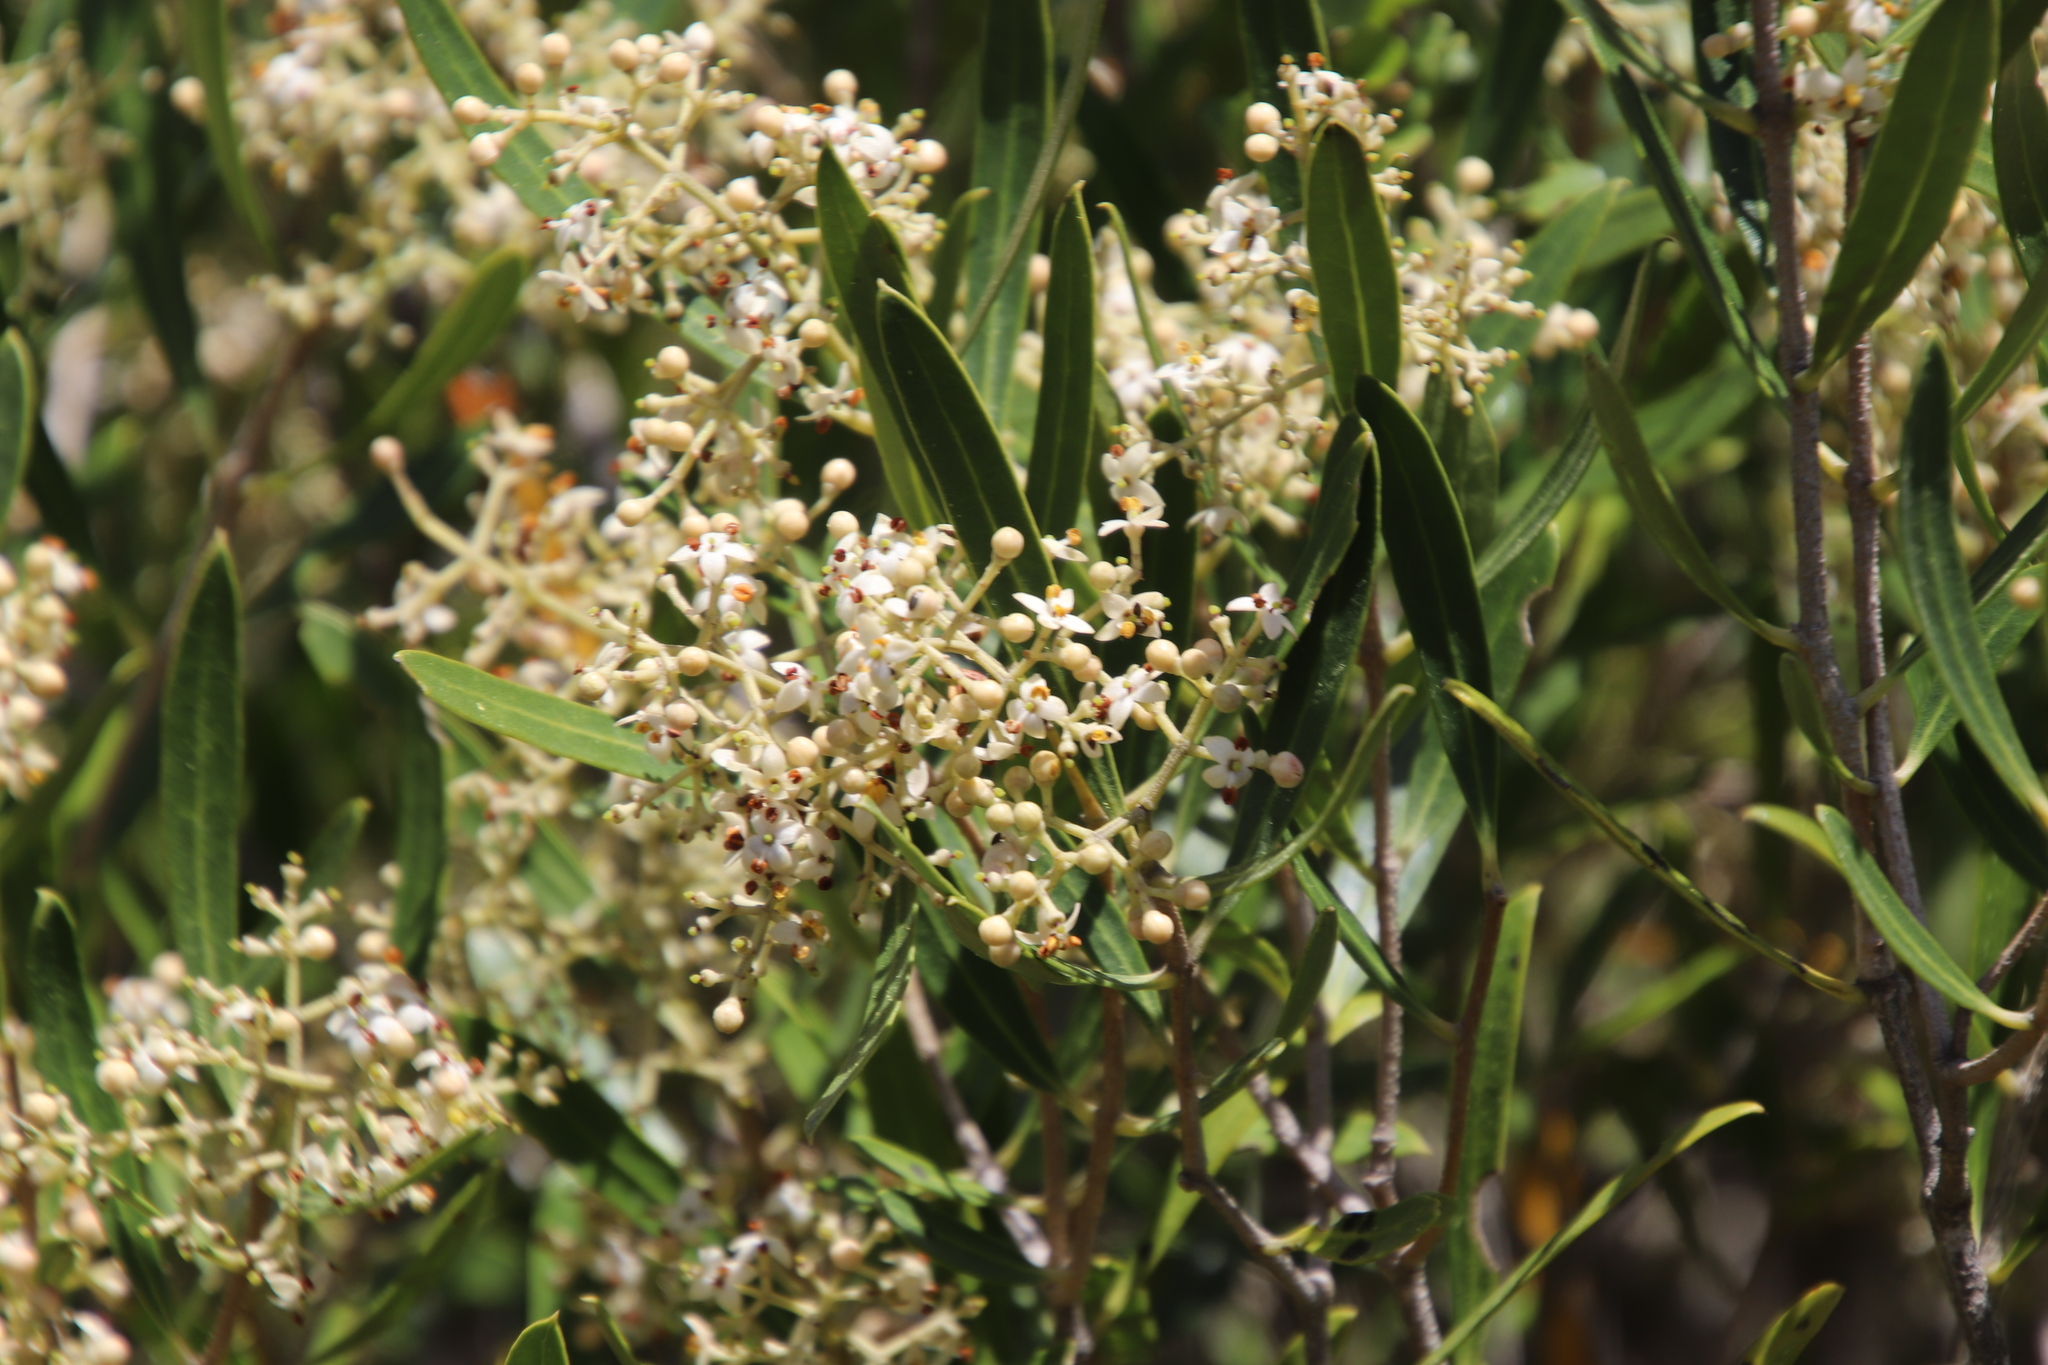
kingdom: Plantae
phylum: Tracheophyta
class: Magnoliopsida
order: Lamiales
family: Oleaceae
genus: Olea
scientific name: Olea exasperata
